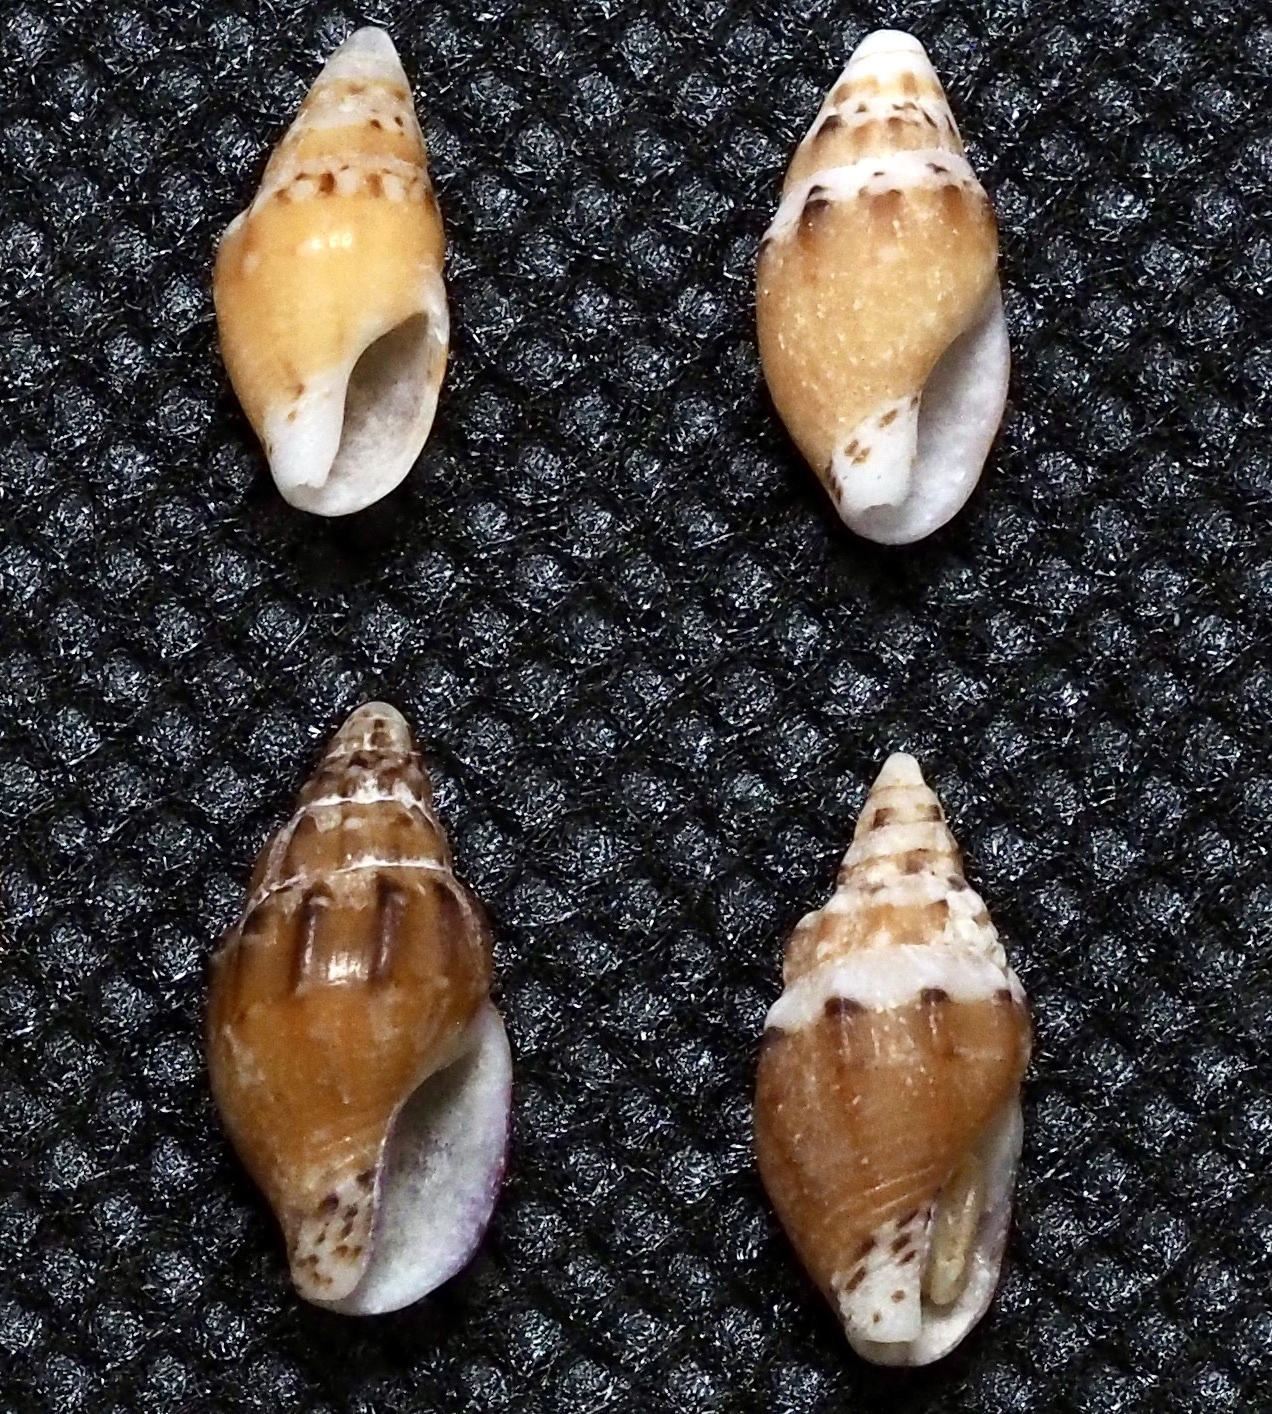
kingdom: Animalia
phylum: Mollusca
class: Gastropoda
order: Neogastropoda
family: Columbellidae
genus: Anachis
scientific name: Anachis miser
